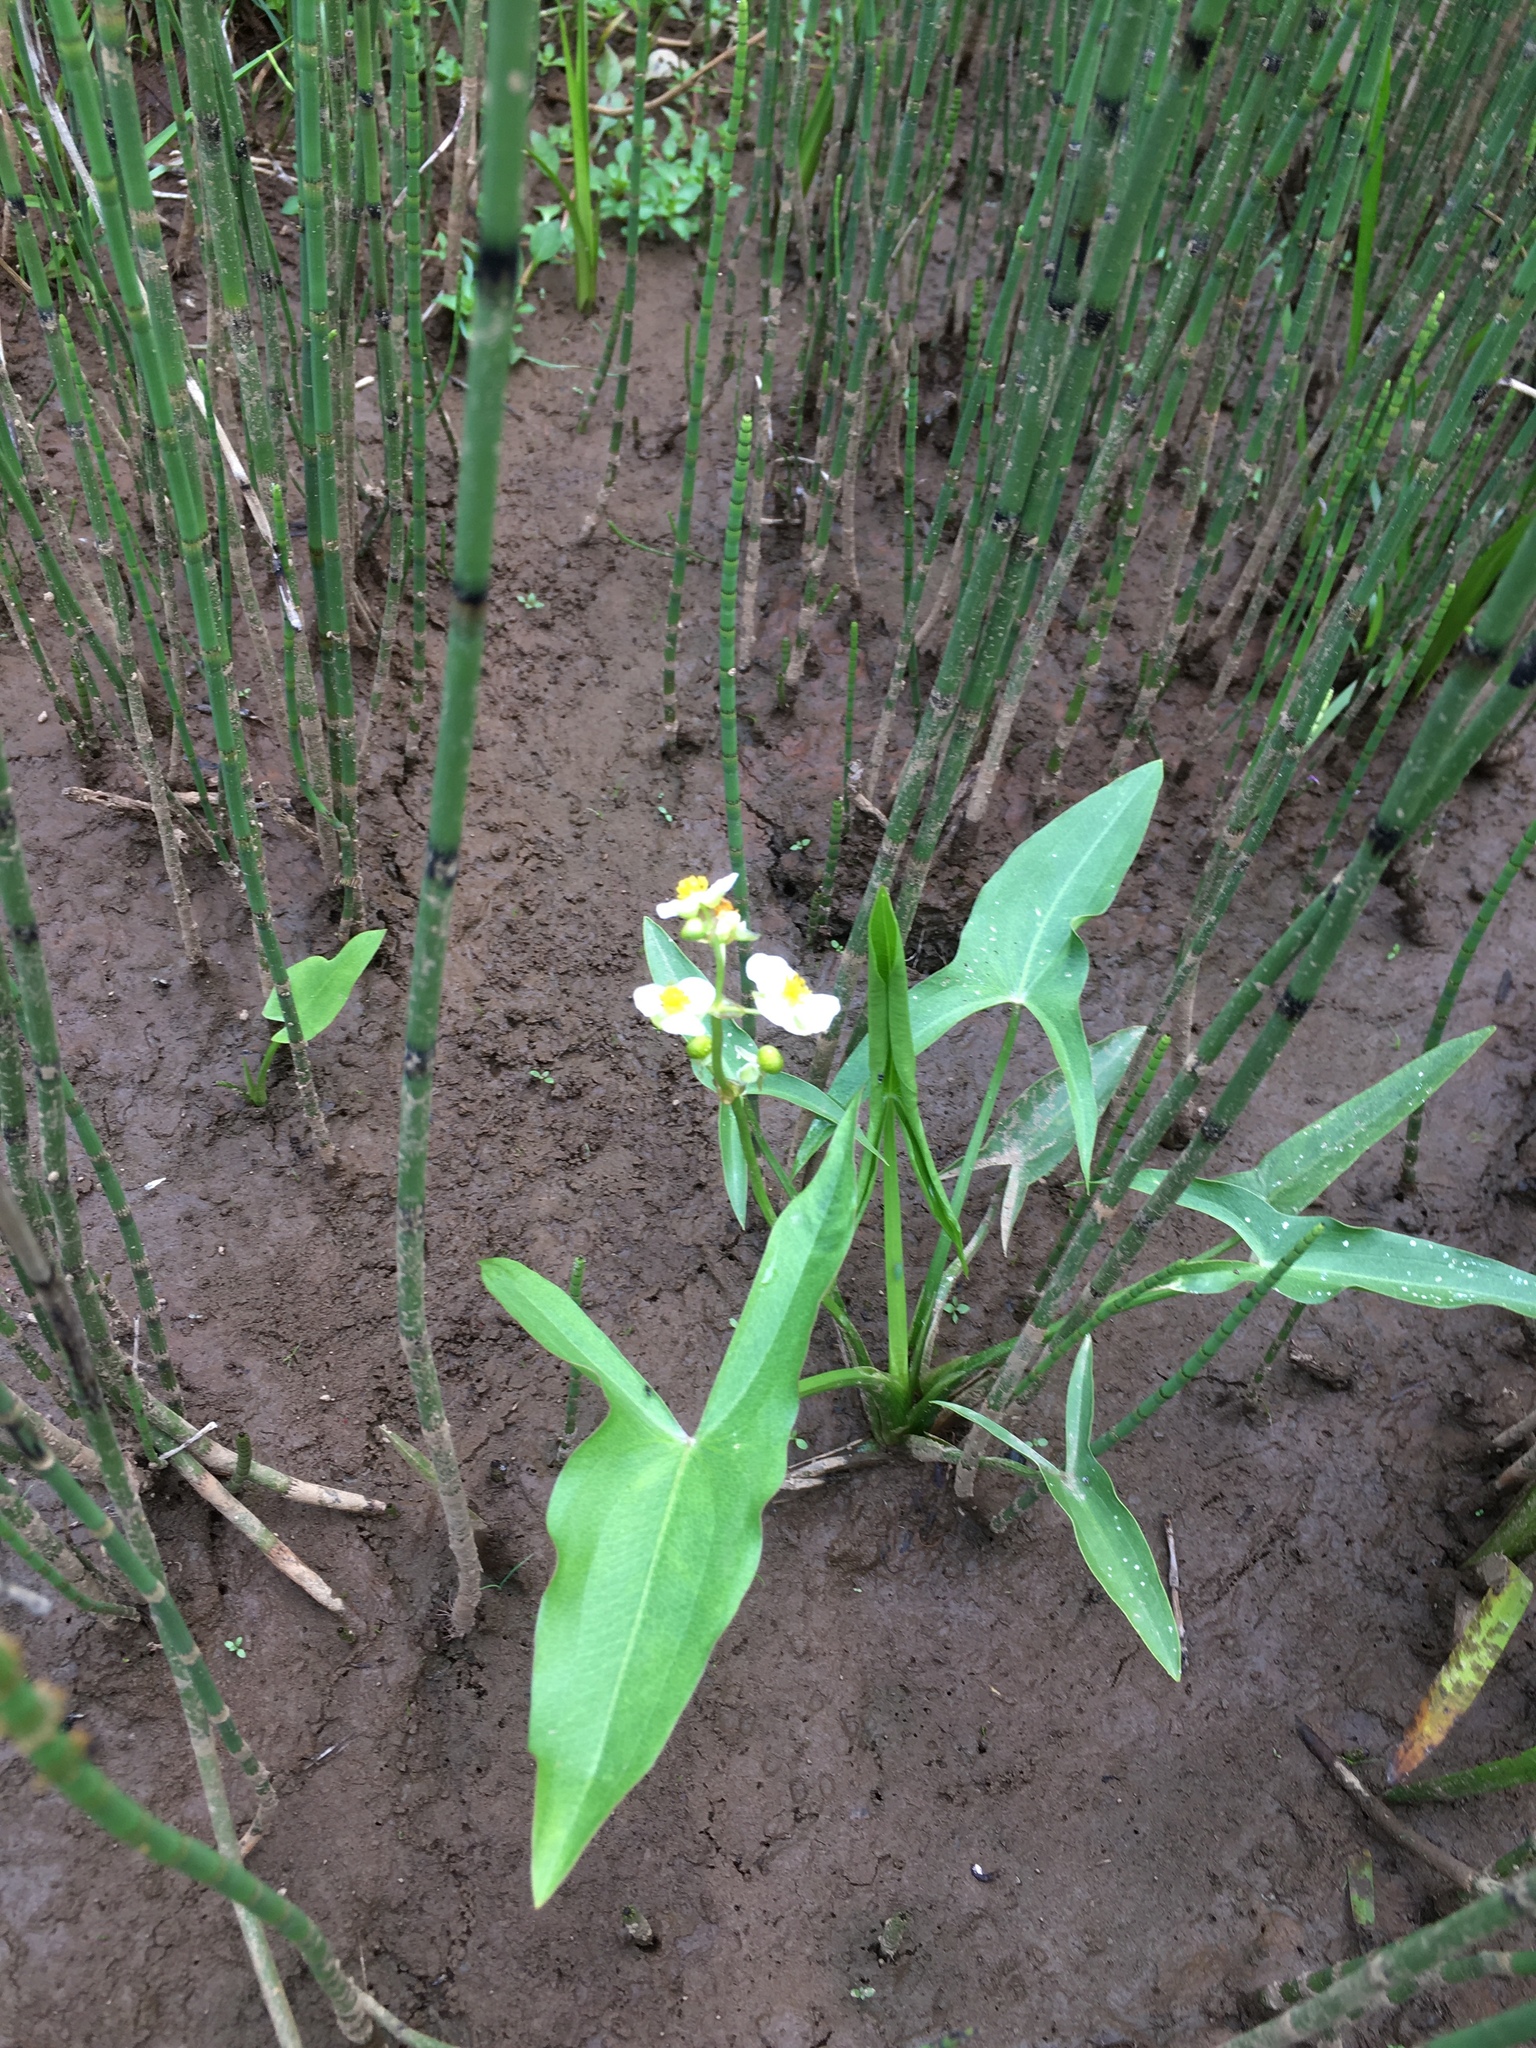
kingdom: Plantae
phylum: Tracheophyta
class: Liliopsida
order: Alismatales
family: Alismataceae
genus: Sagittaria
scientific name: Sagittaria latifolia
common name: Duck-potato
